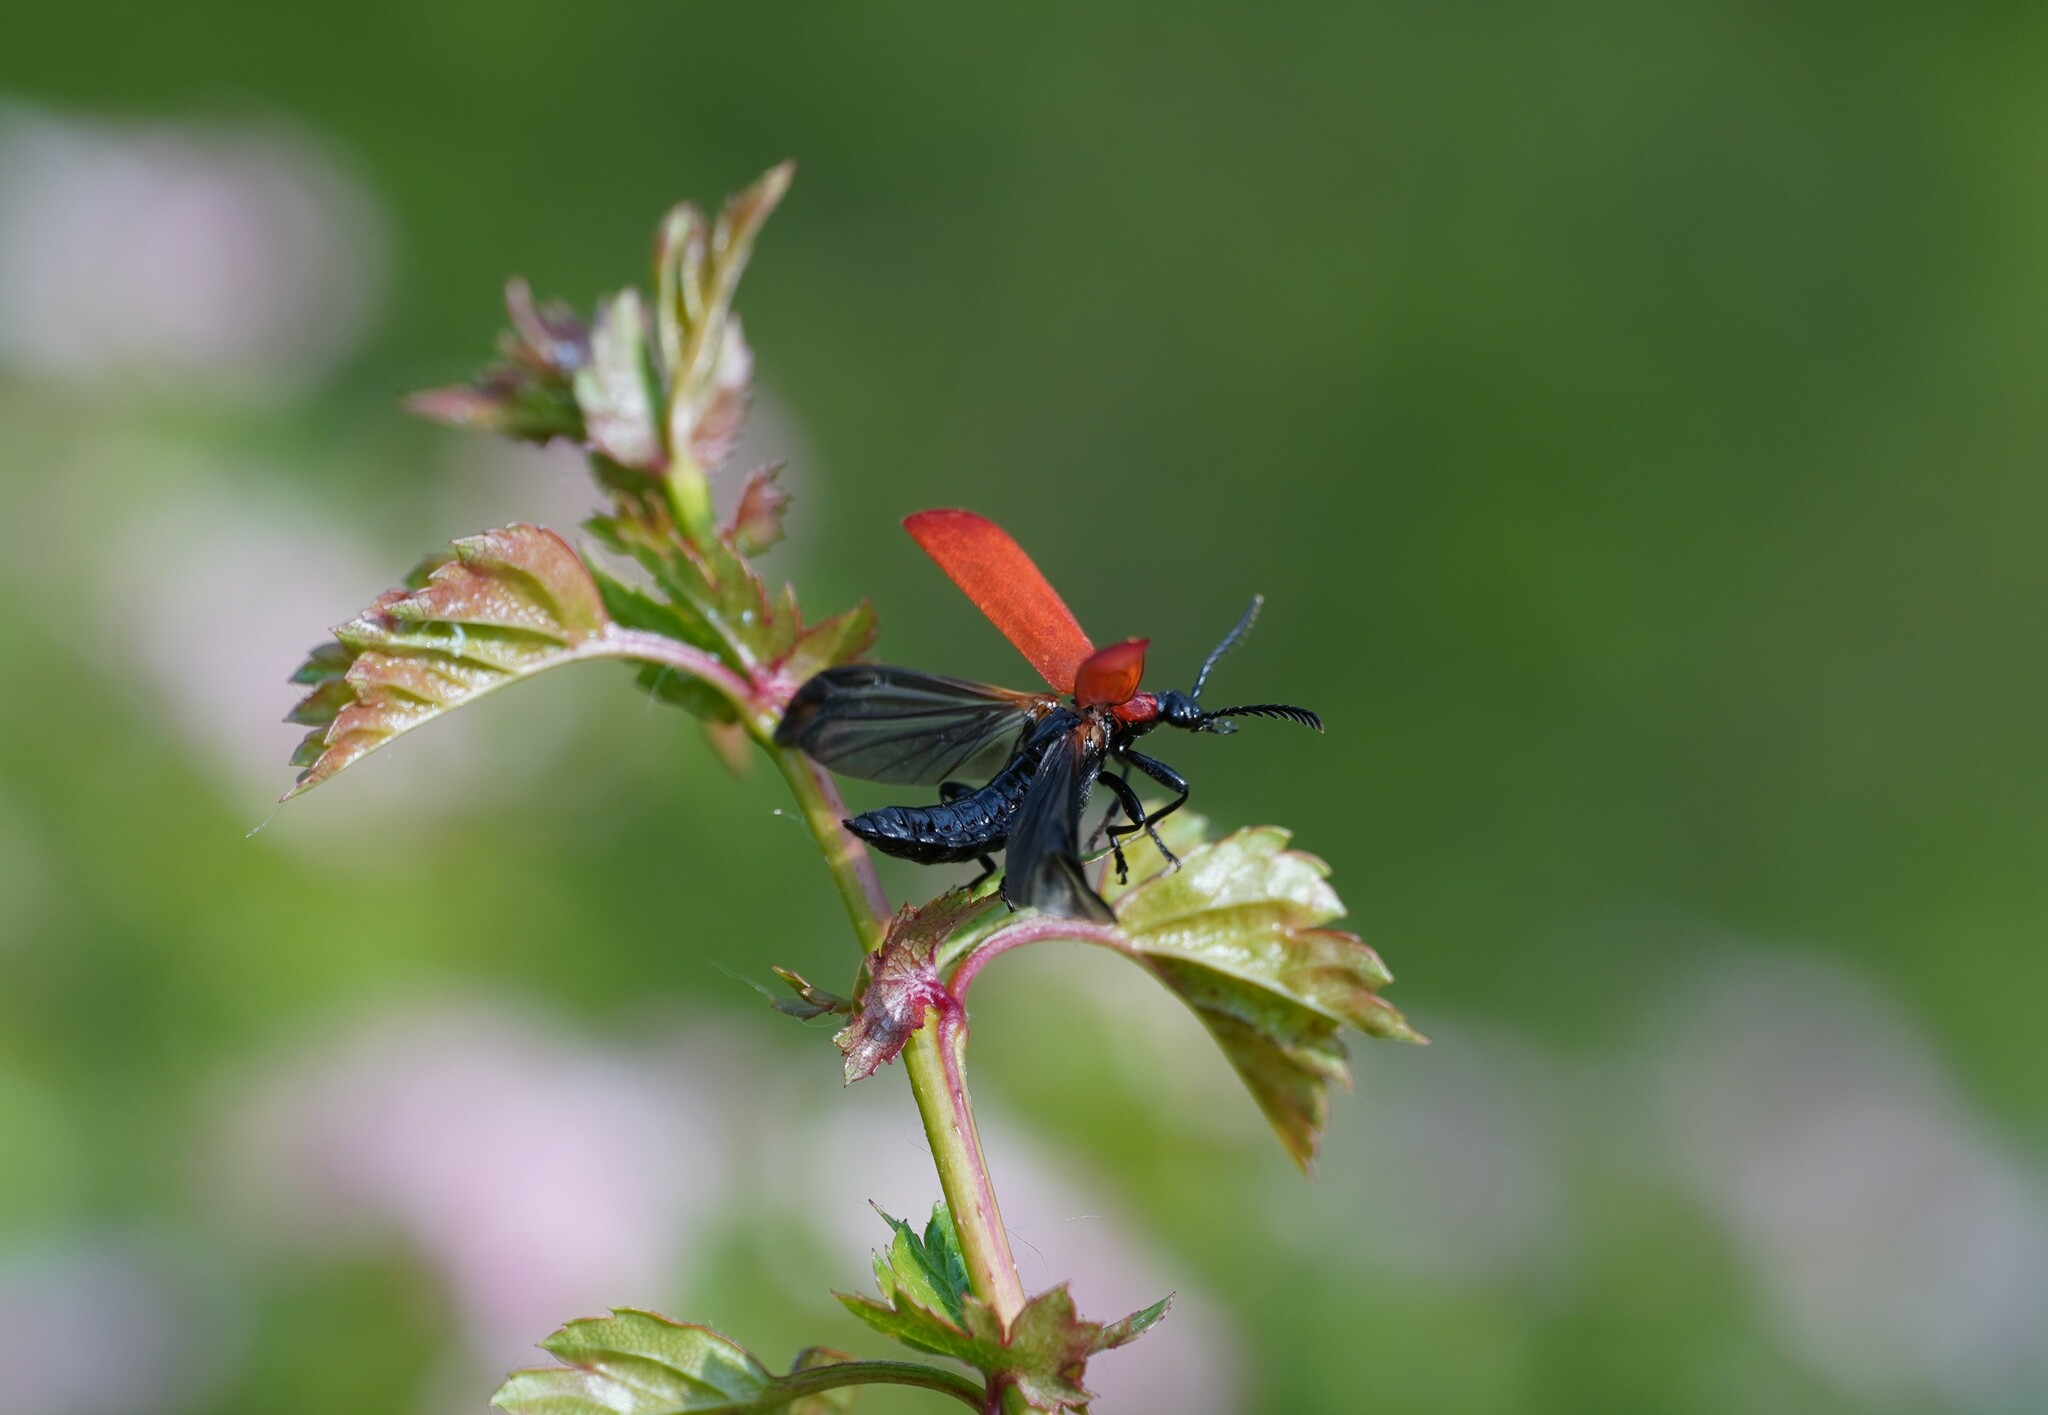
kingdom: Animalia
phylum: Arthropoda
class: Insecta
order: Coleoptera
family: Pyrochroidae
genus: Pyrochroa
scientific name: Pyrochroa coccinea
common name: Black-headed cardinal beetle
